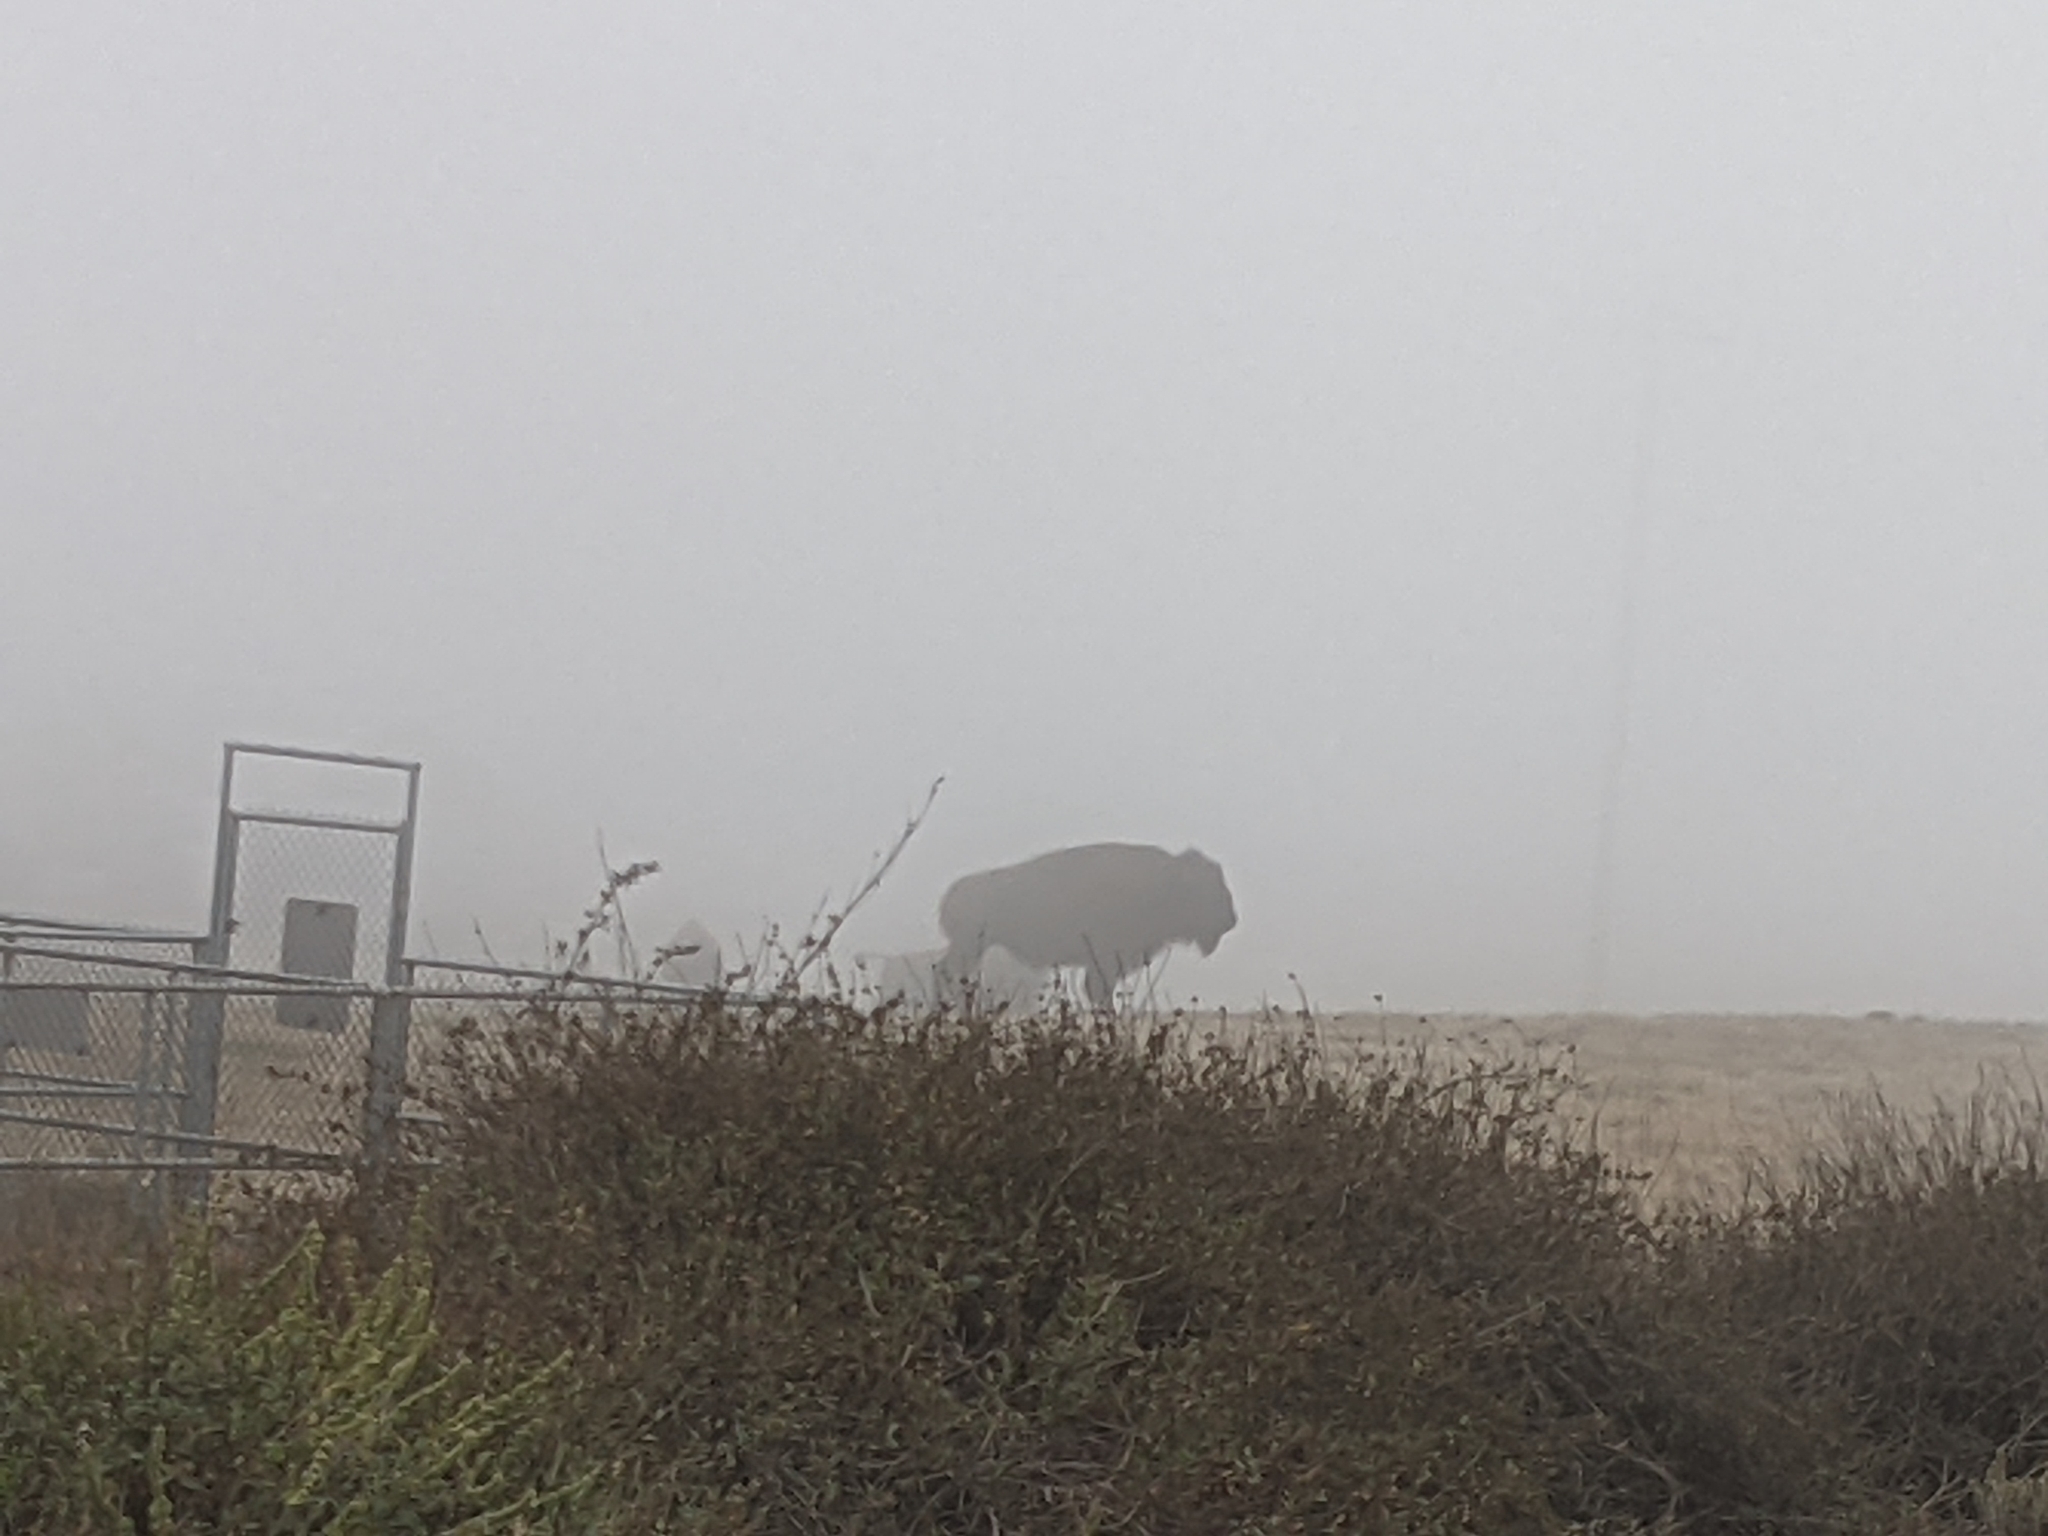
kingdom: Animalia
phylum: Chordata
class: Mammalia
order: Artiodactyla
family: Bovidae
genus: Bison
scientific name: Bison bison
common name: American bison
